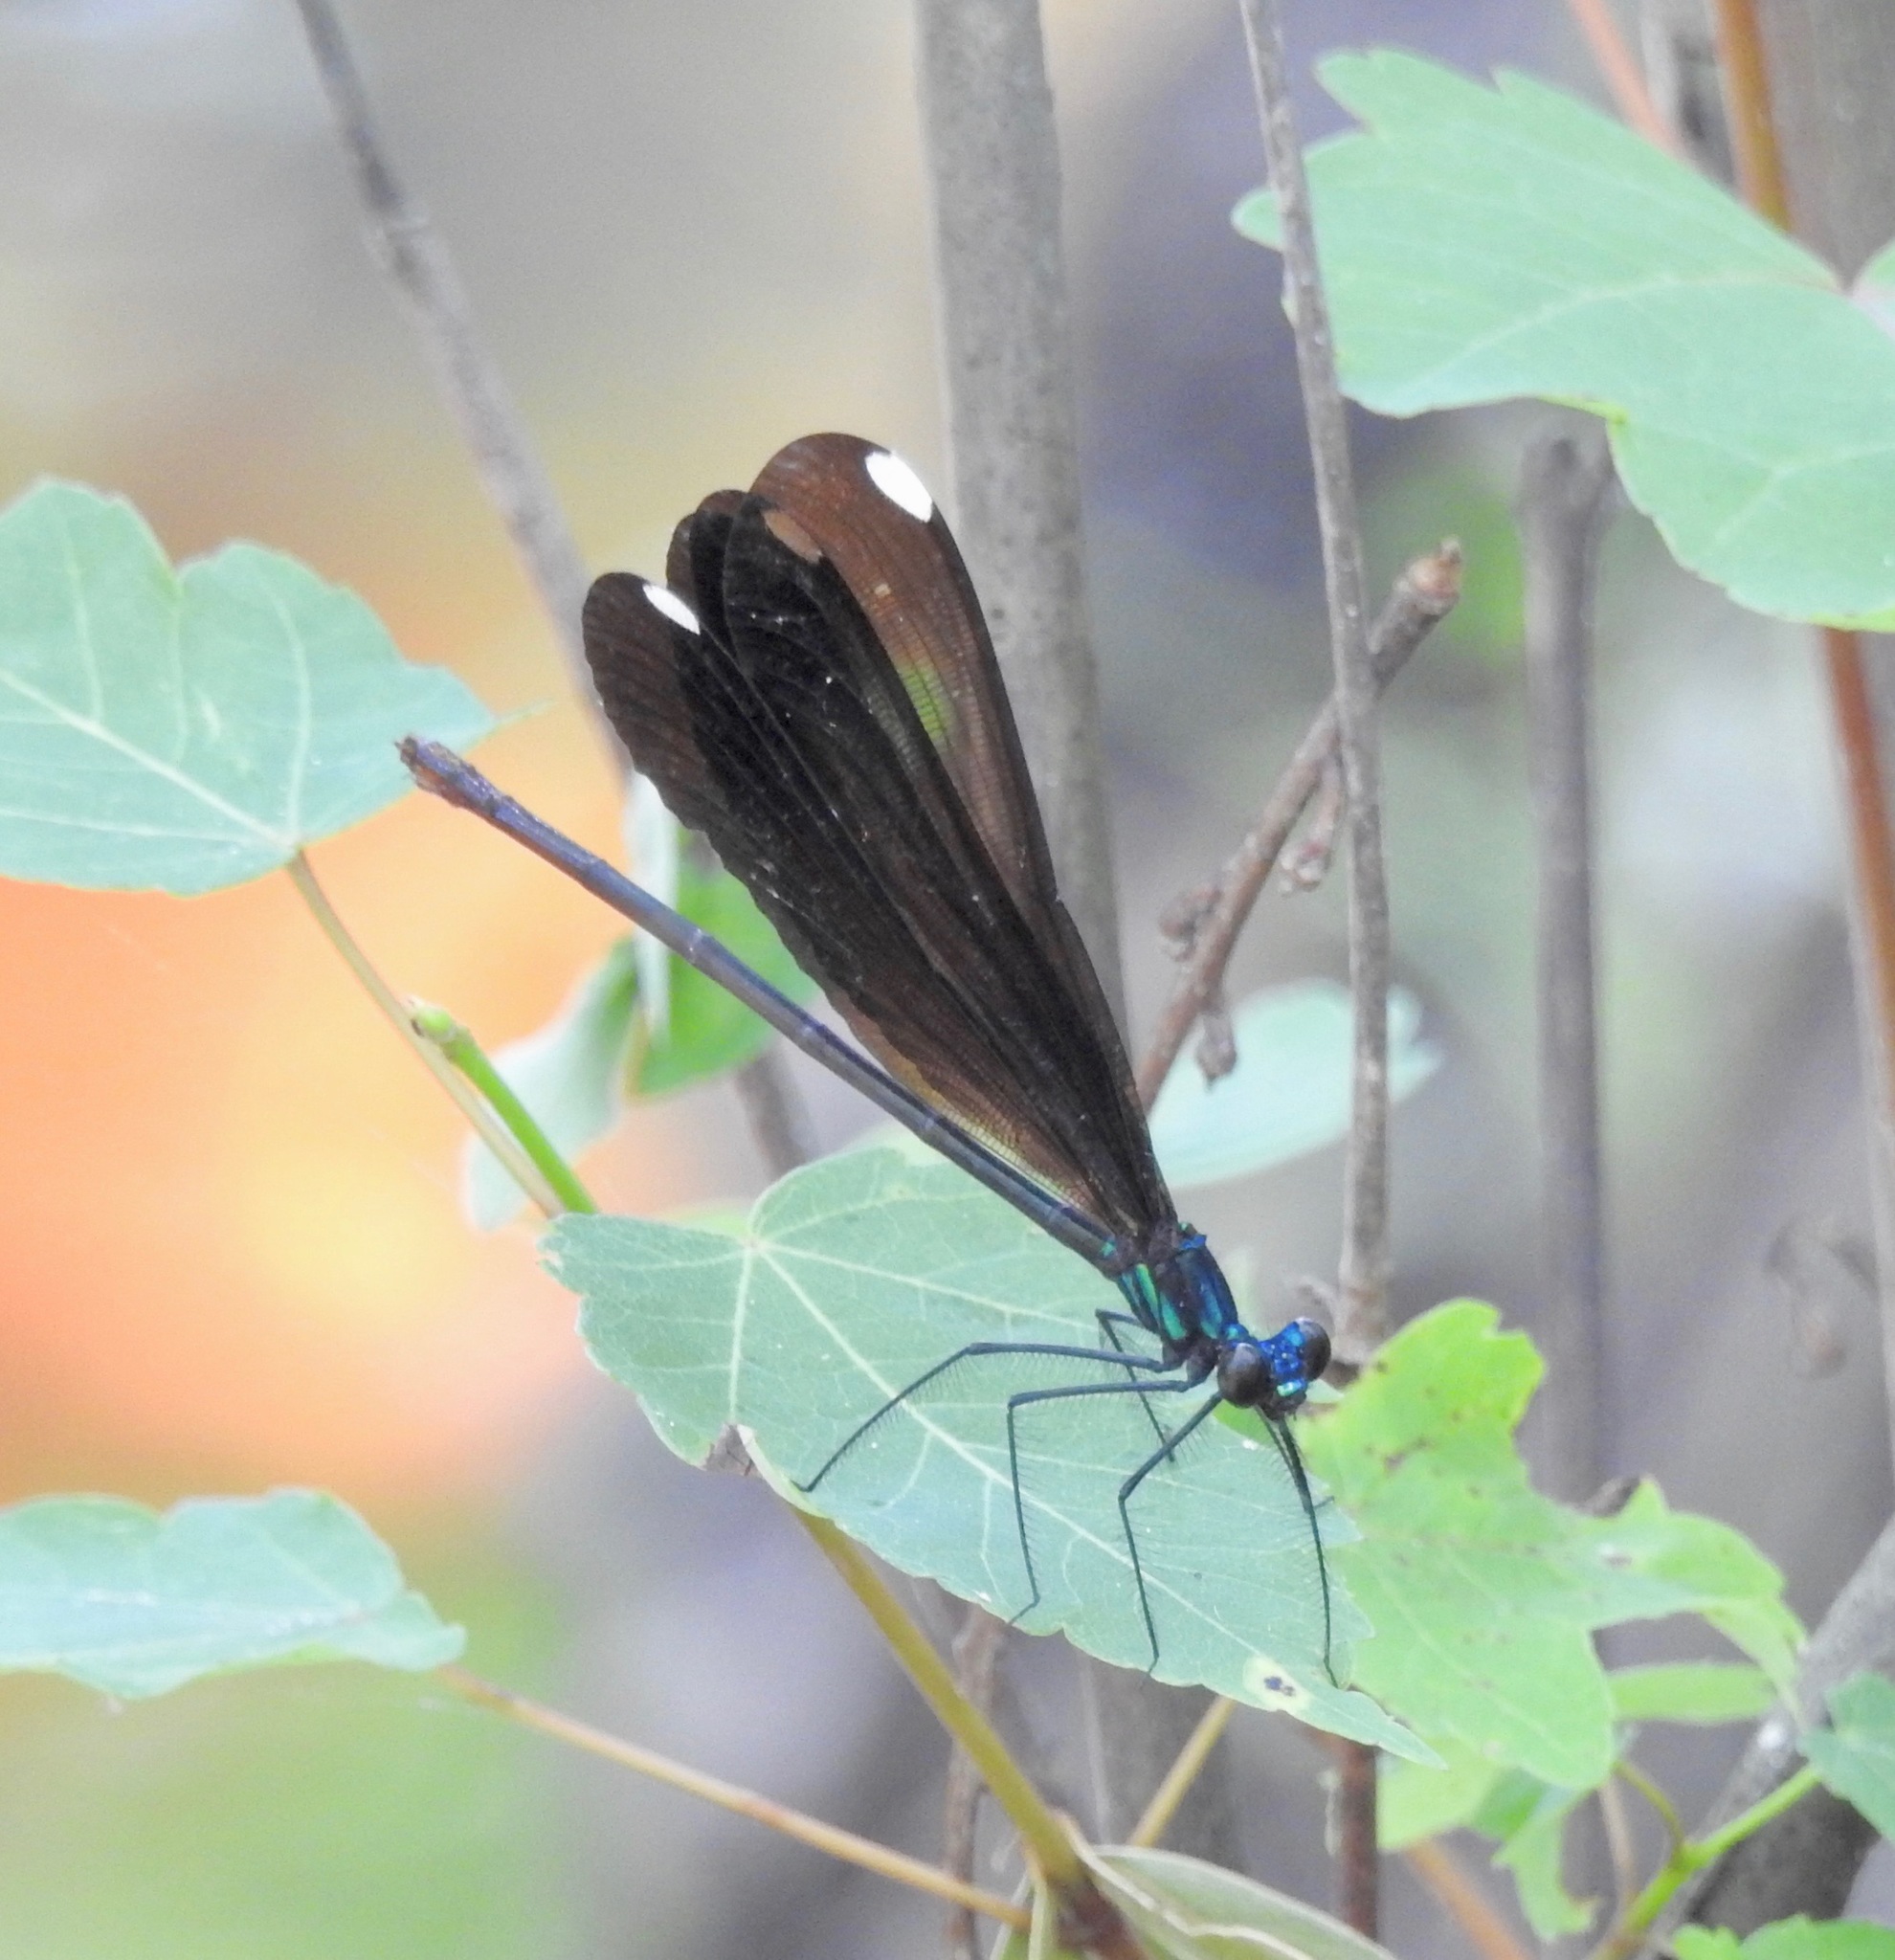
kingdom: Animalia
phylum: Arthropoda
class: Insecta
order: Odonata
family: Calopterygidae
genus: Calopteryx
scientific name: Calopteryx maculata
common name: Ebony jewelwing
